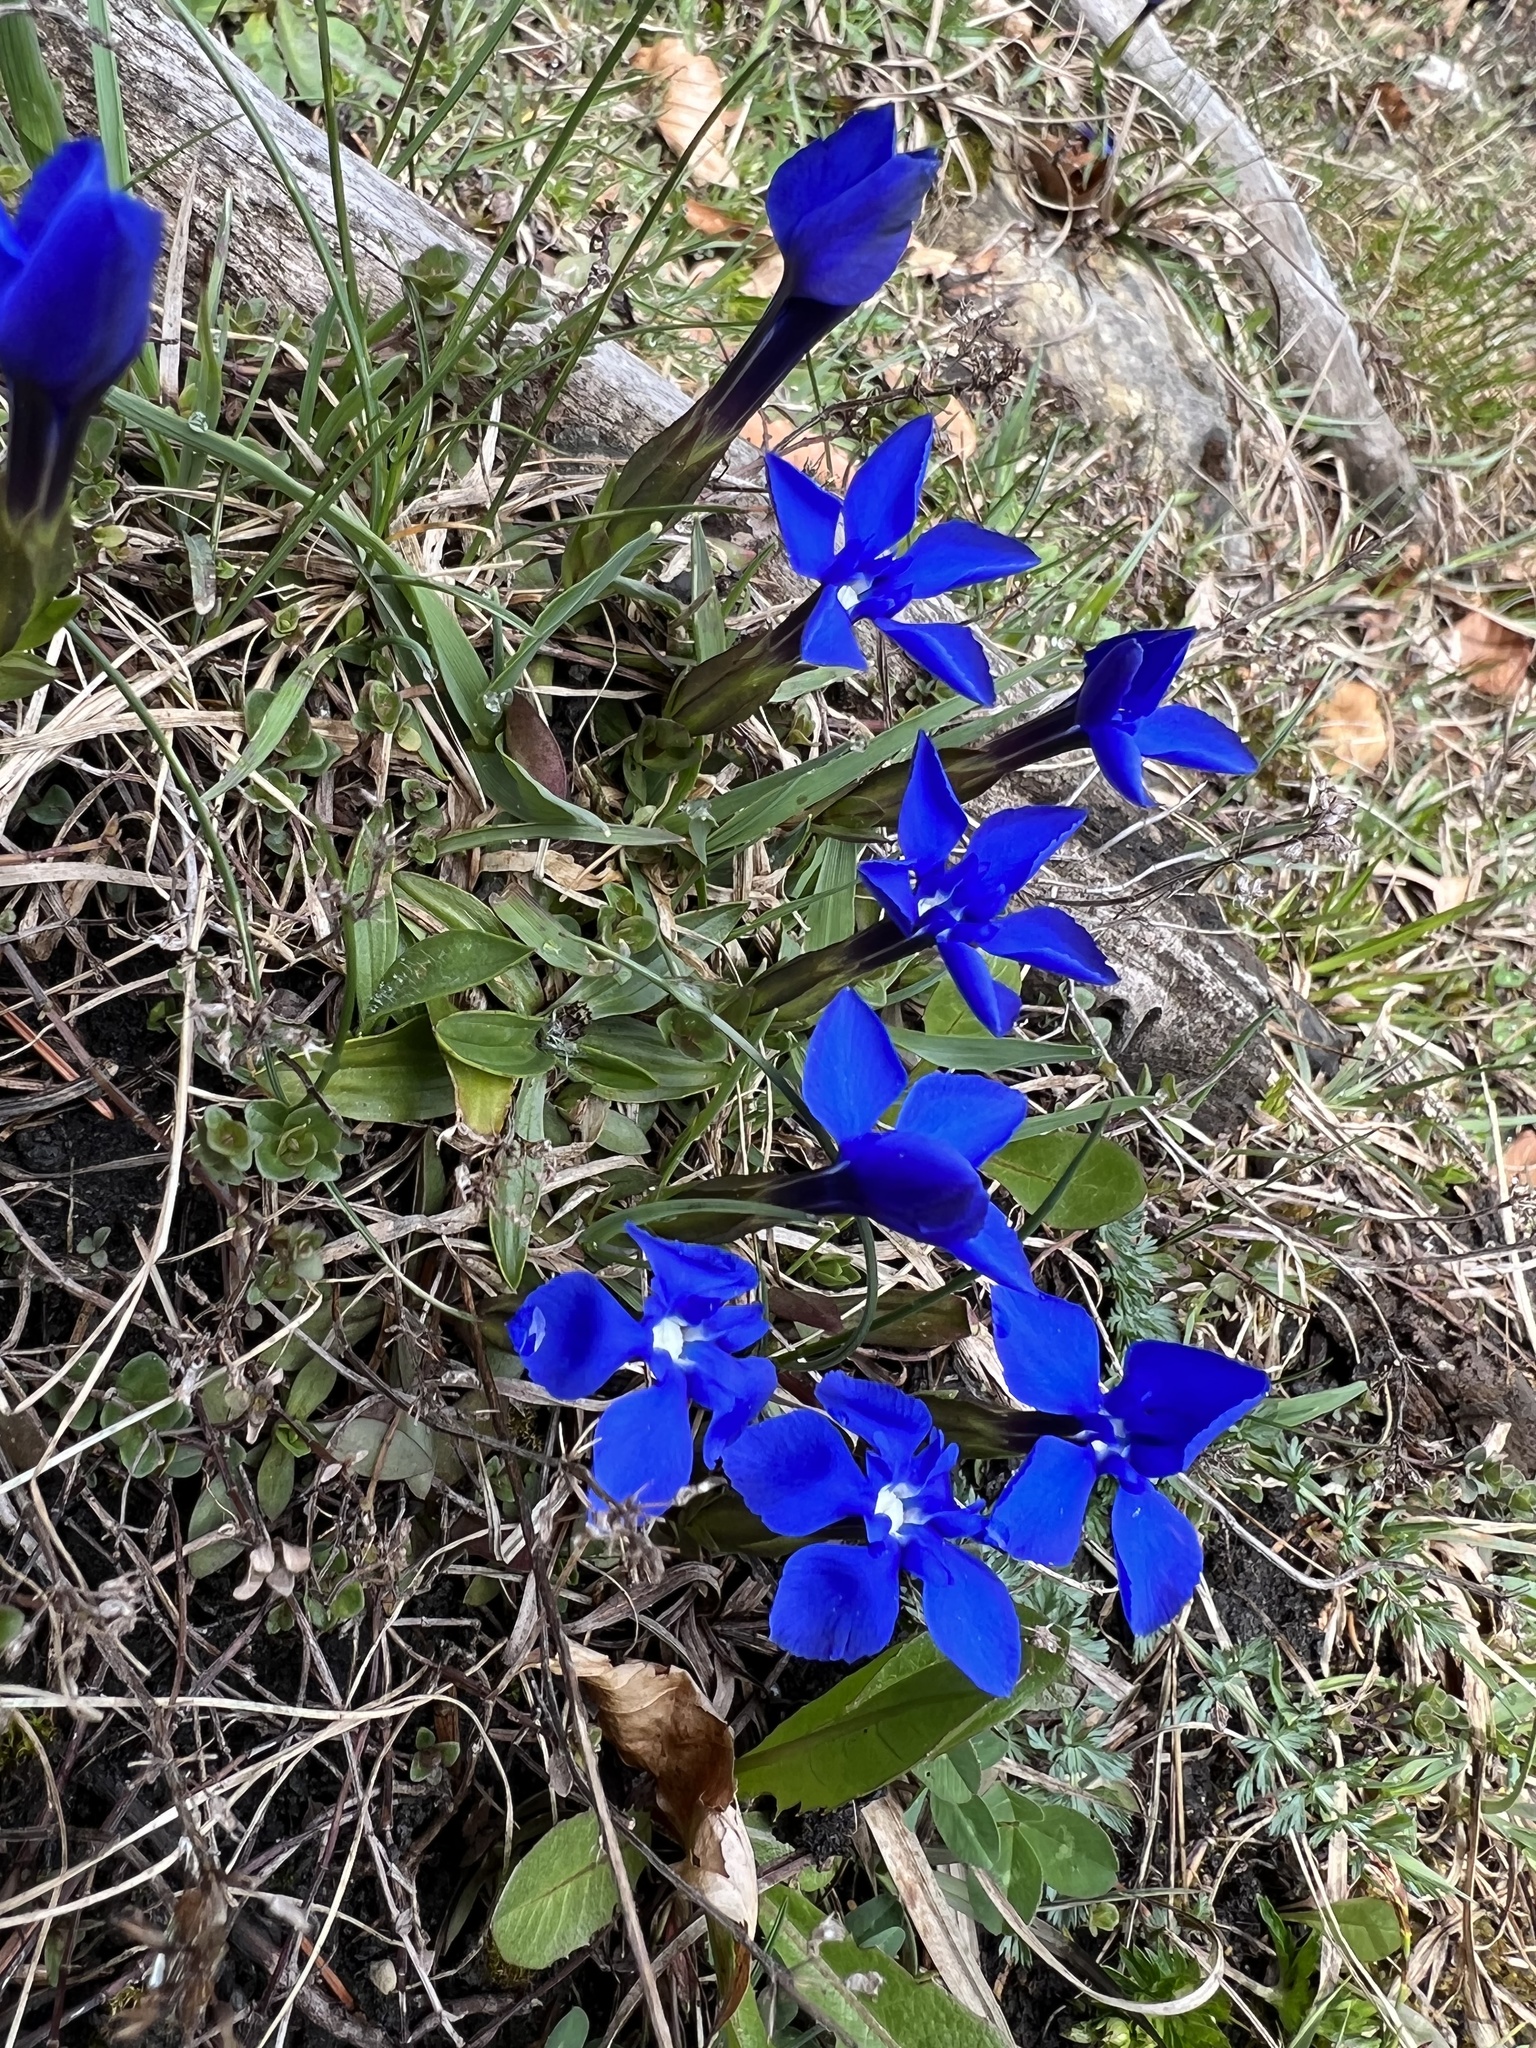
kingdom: Plantae
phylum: Tracheophyta
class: Magnoliopsida
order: Gentianales
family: Gentianaceae
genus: Gentiana
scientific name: Gentiana verna
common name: Spring gentian
